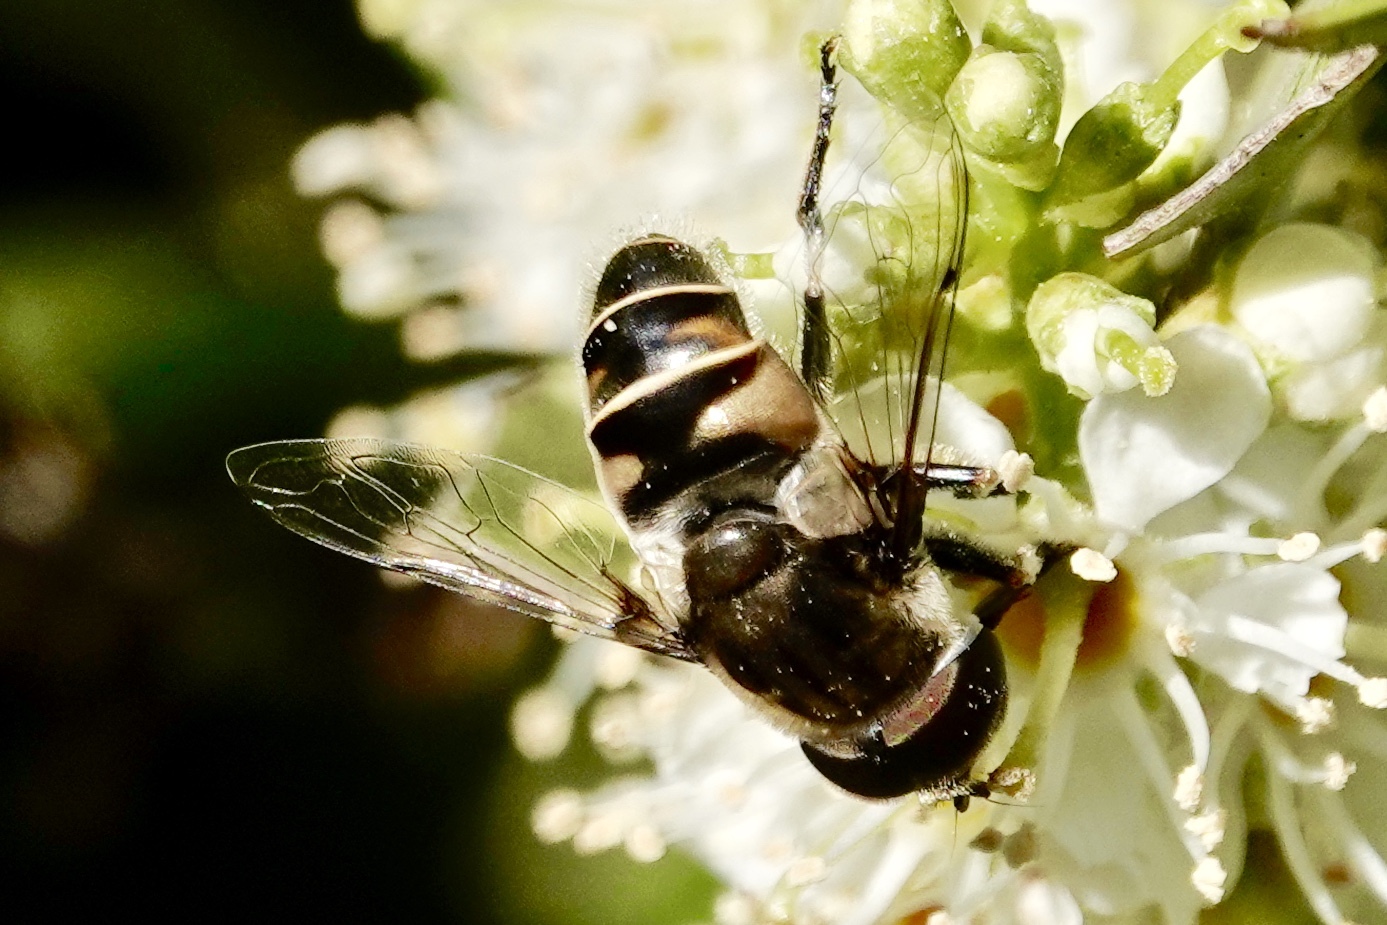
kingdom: Animalia
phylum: Arthropoda
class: Insecta
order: Diptera
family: Syrphidae
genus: Eristalis
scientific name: Eristalis dimidiata
